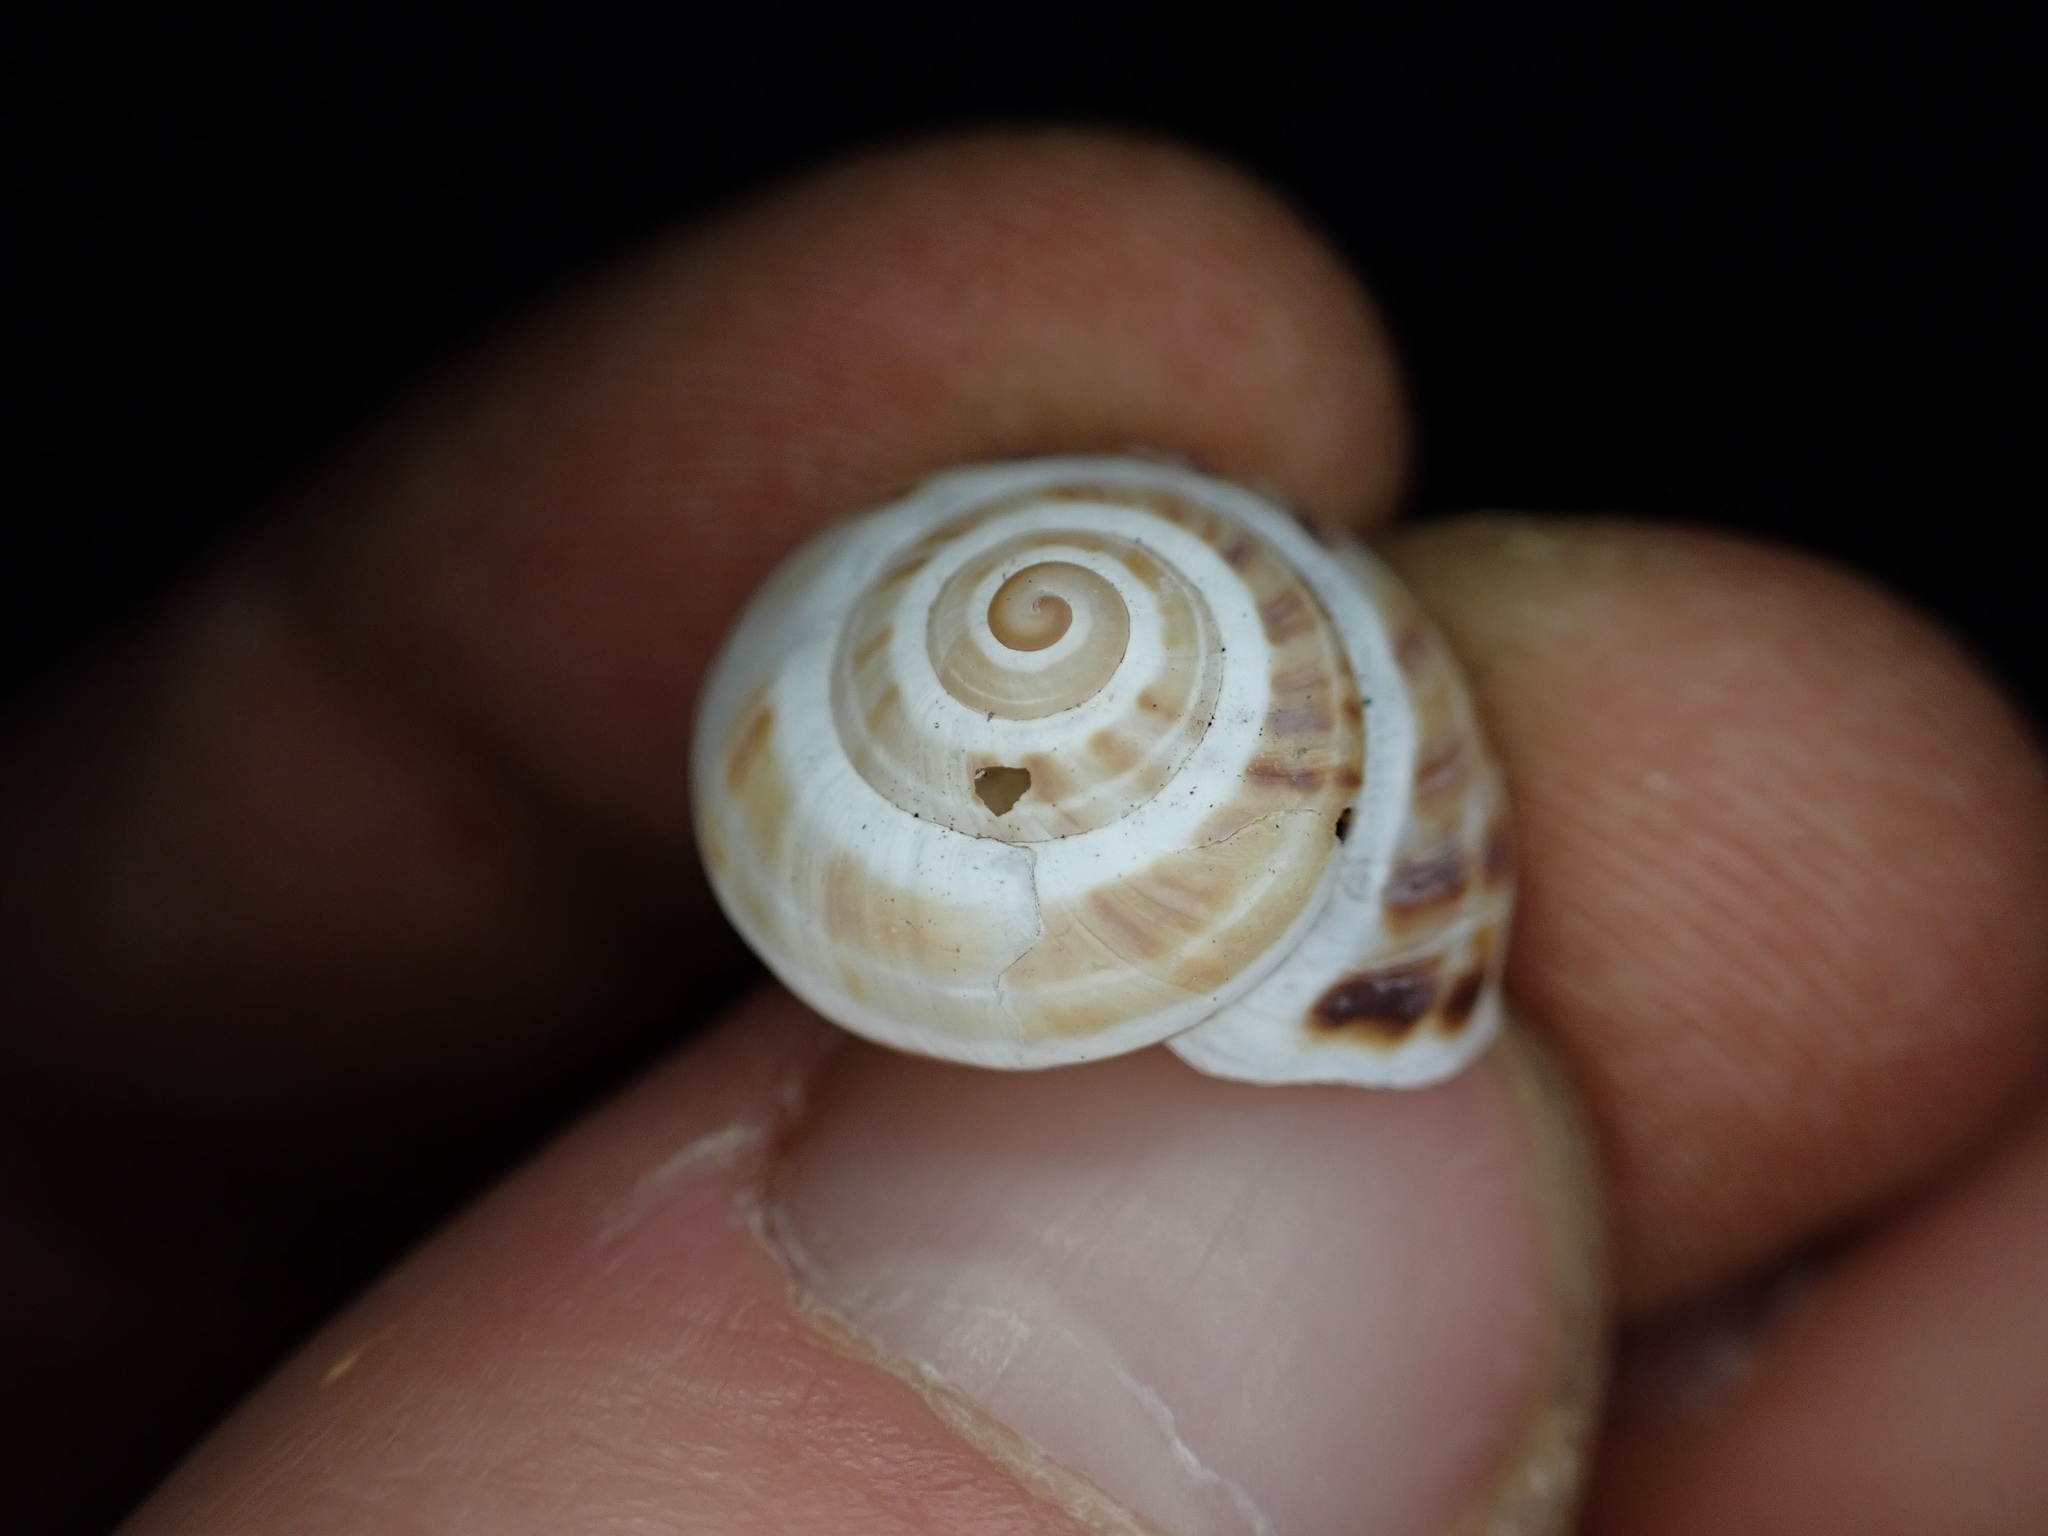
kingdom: Animalia
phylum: Mollusca
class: Gastropoda
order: Stylommatophora
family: Helicidae
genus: Pseudotachea
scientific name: Pseudotachea splendida
